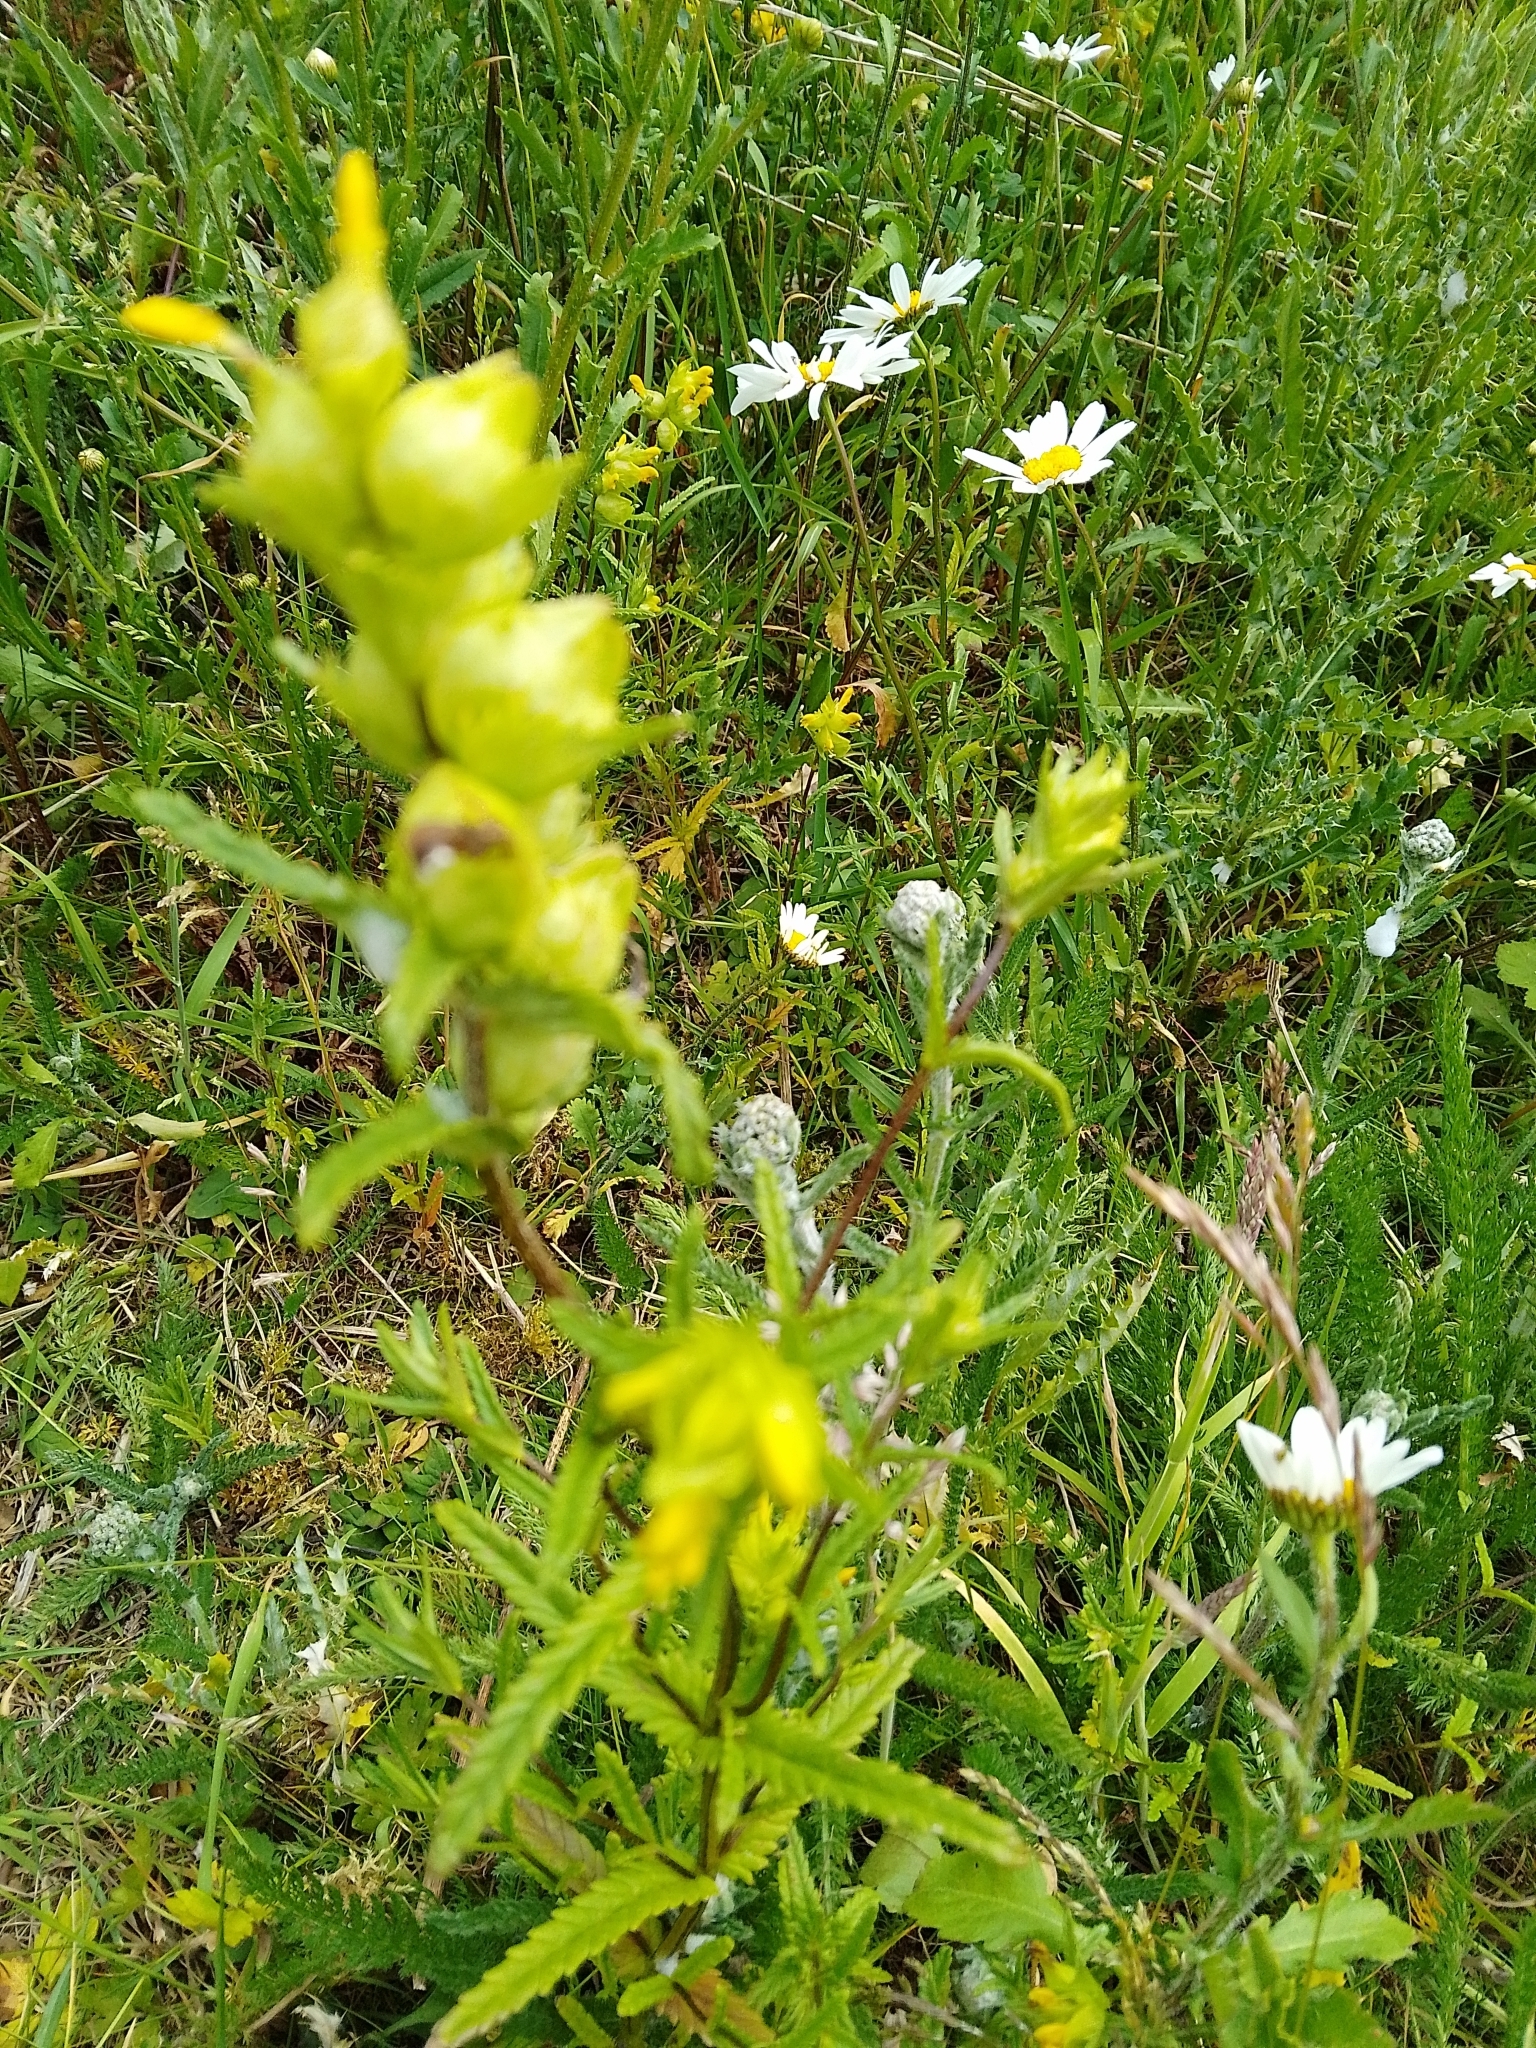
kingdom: Plantae
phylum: Tracheophyta
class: Magnoliopsida
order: Lamiales
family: Orobanchaceae
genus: Rhinanthus
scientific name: Rhinanthus minor
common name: Yellow-rattle
